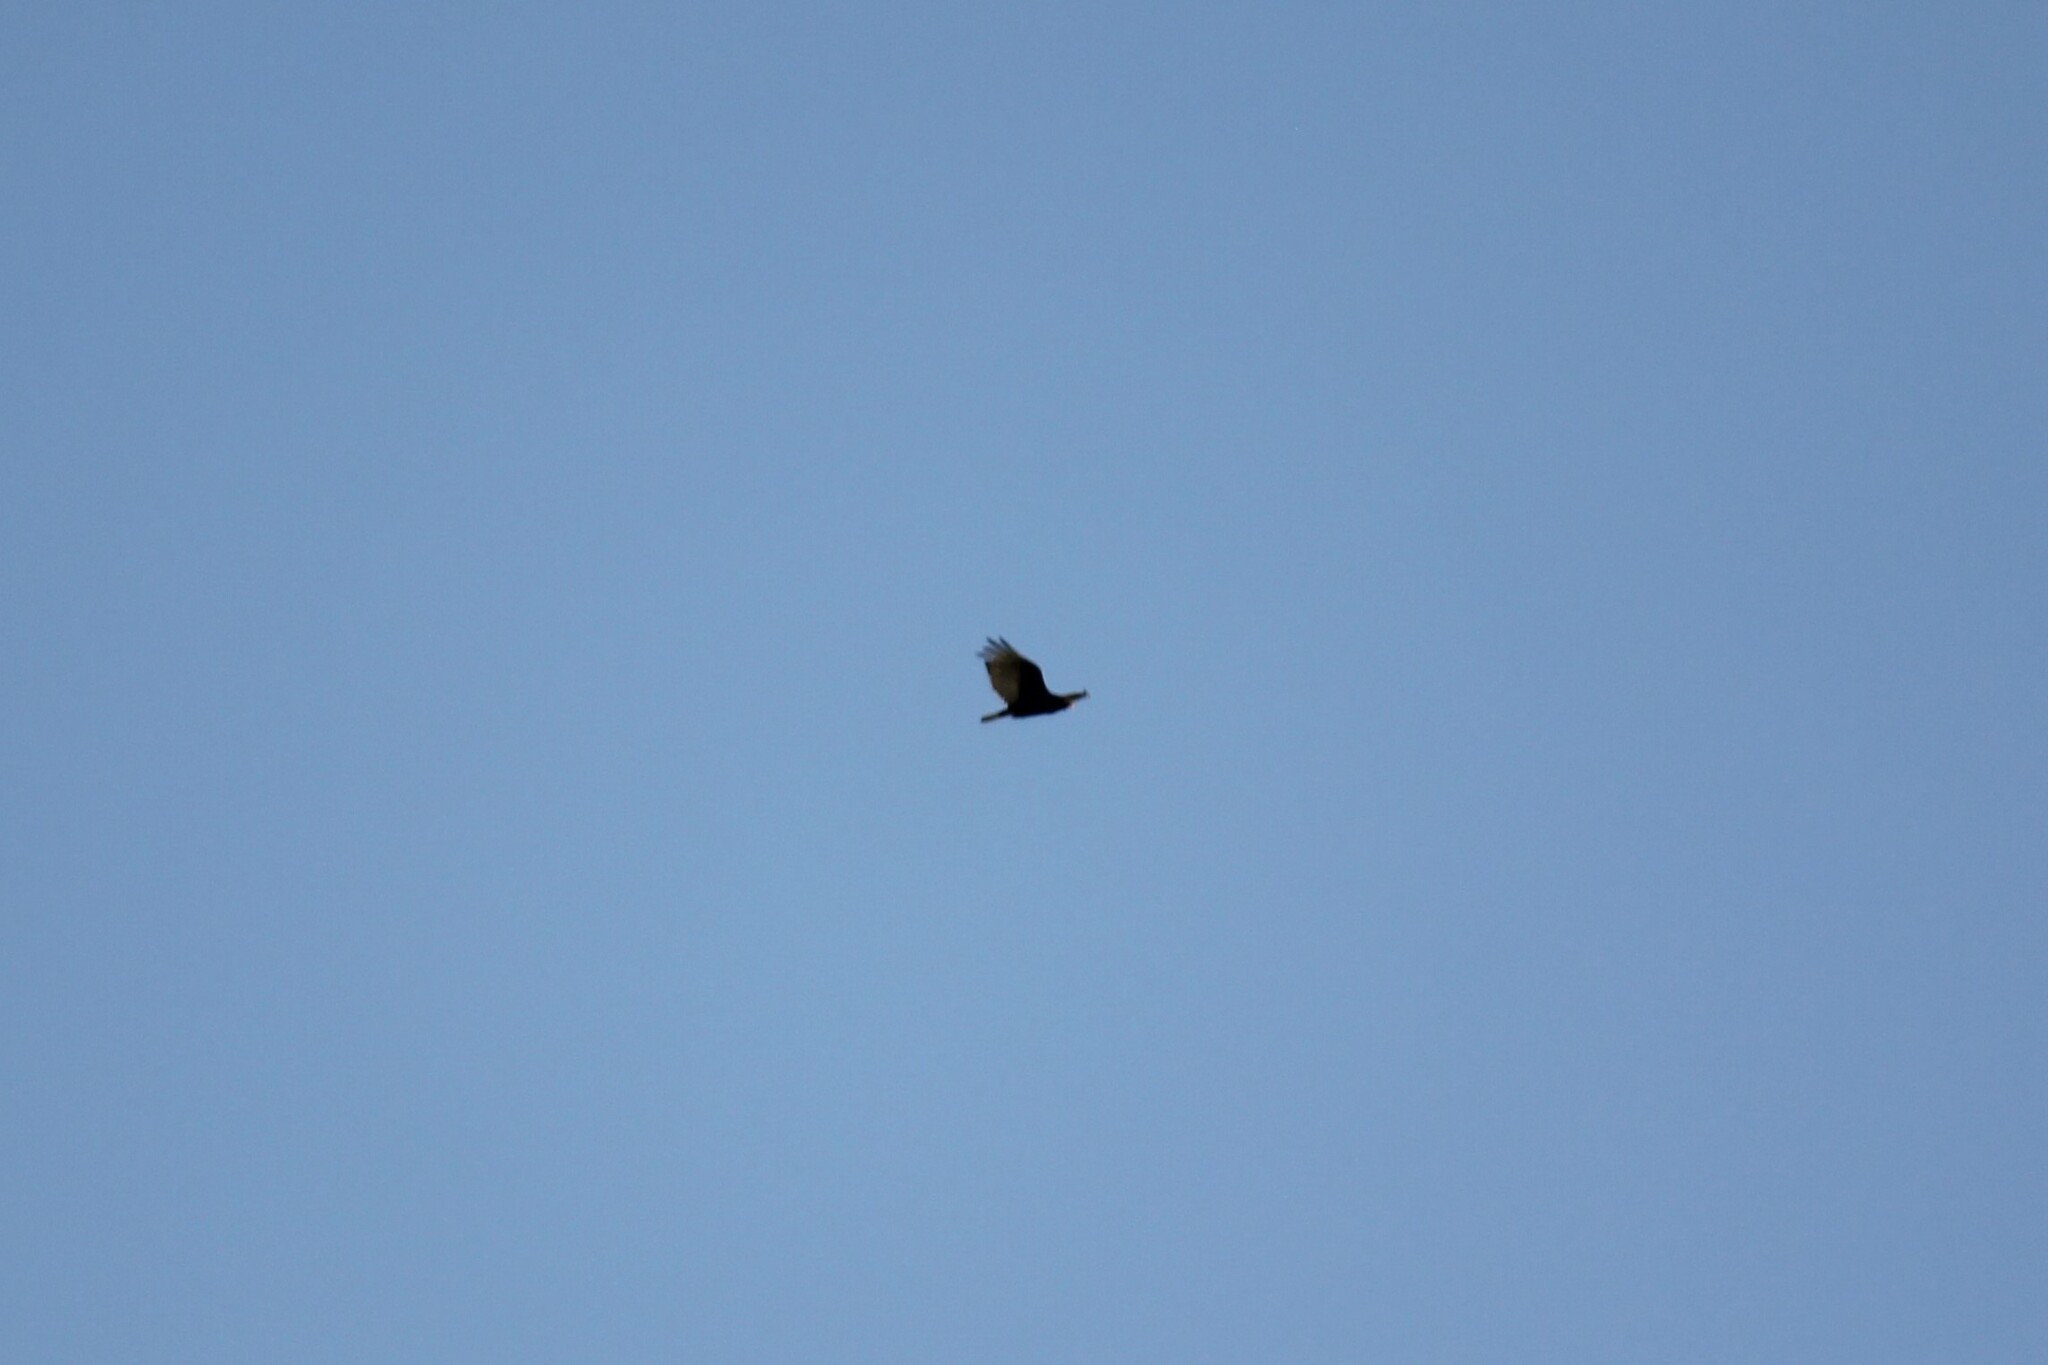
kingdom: Animalia
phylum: Chordata
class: Aves
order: Accipitriformes
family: Cathartidae
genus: Cathartes
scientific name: Cathartes aura
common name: Turkey vulture
